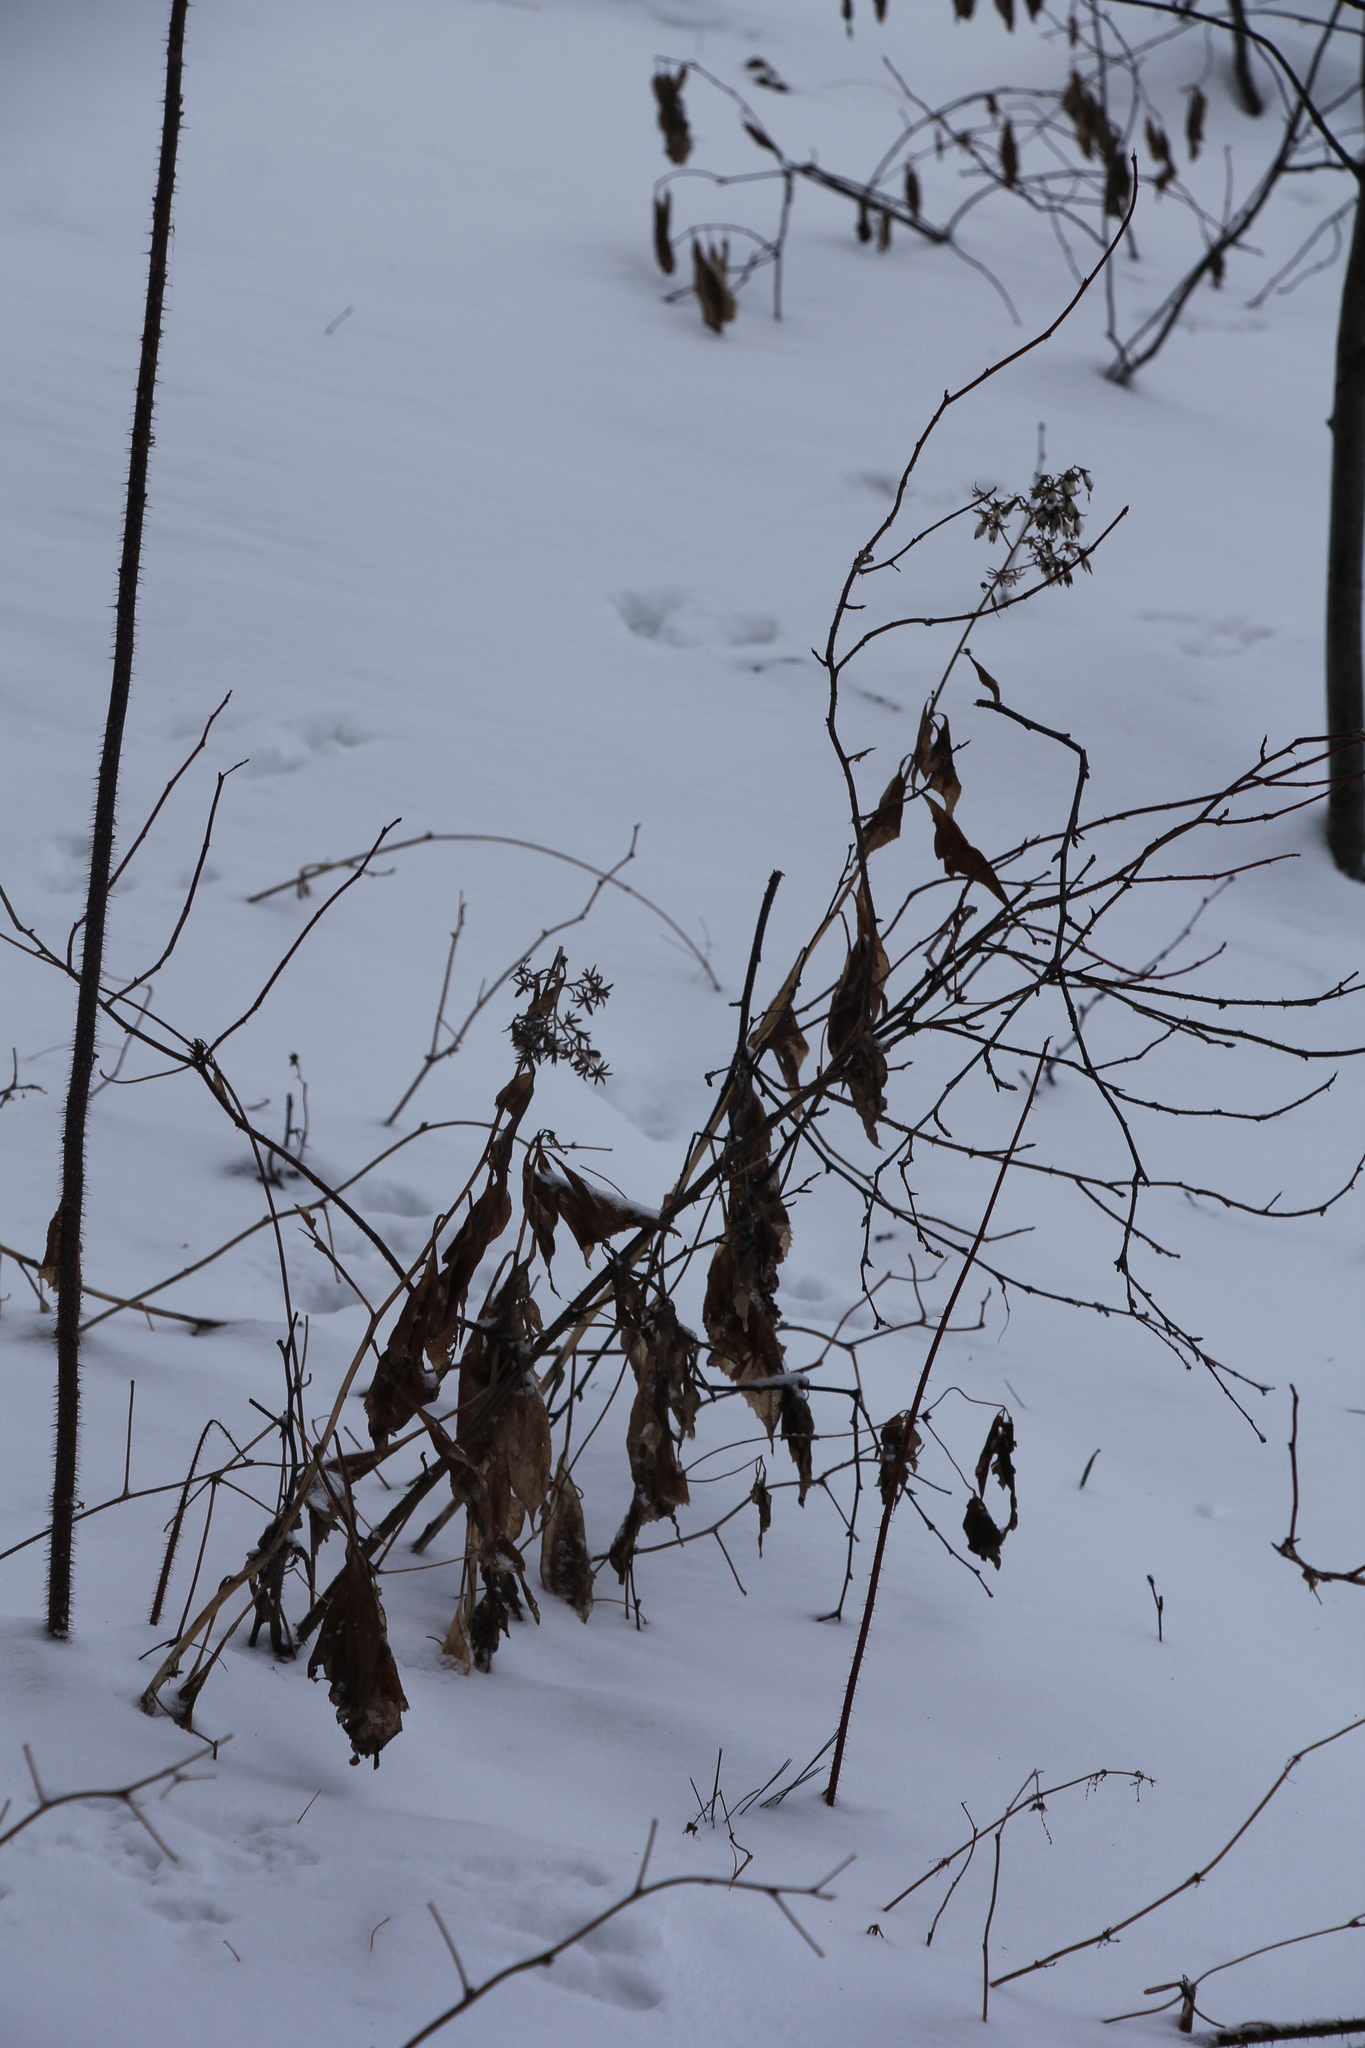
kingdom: Plantae
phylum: Tracheophyta
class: Magnoliopsida
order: Asterales
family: Asteraceae
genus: Parasenecio
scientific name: Parasenecio hastatus
